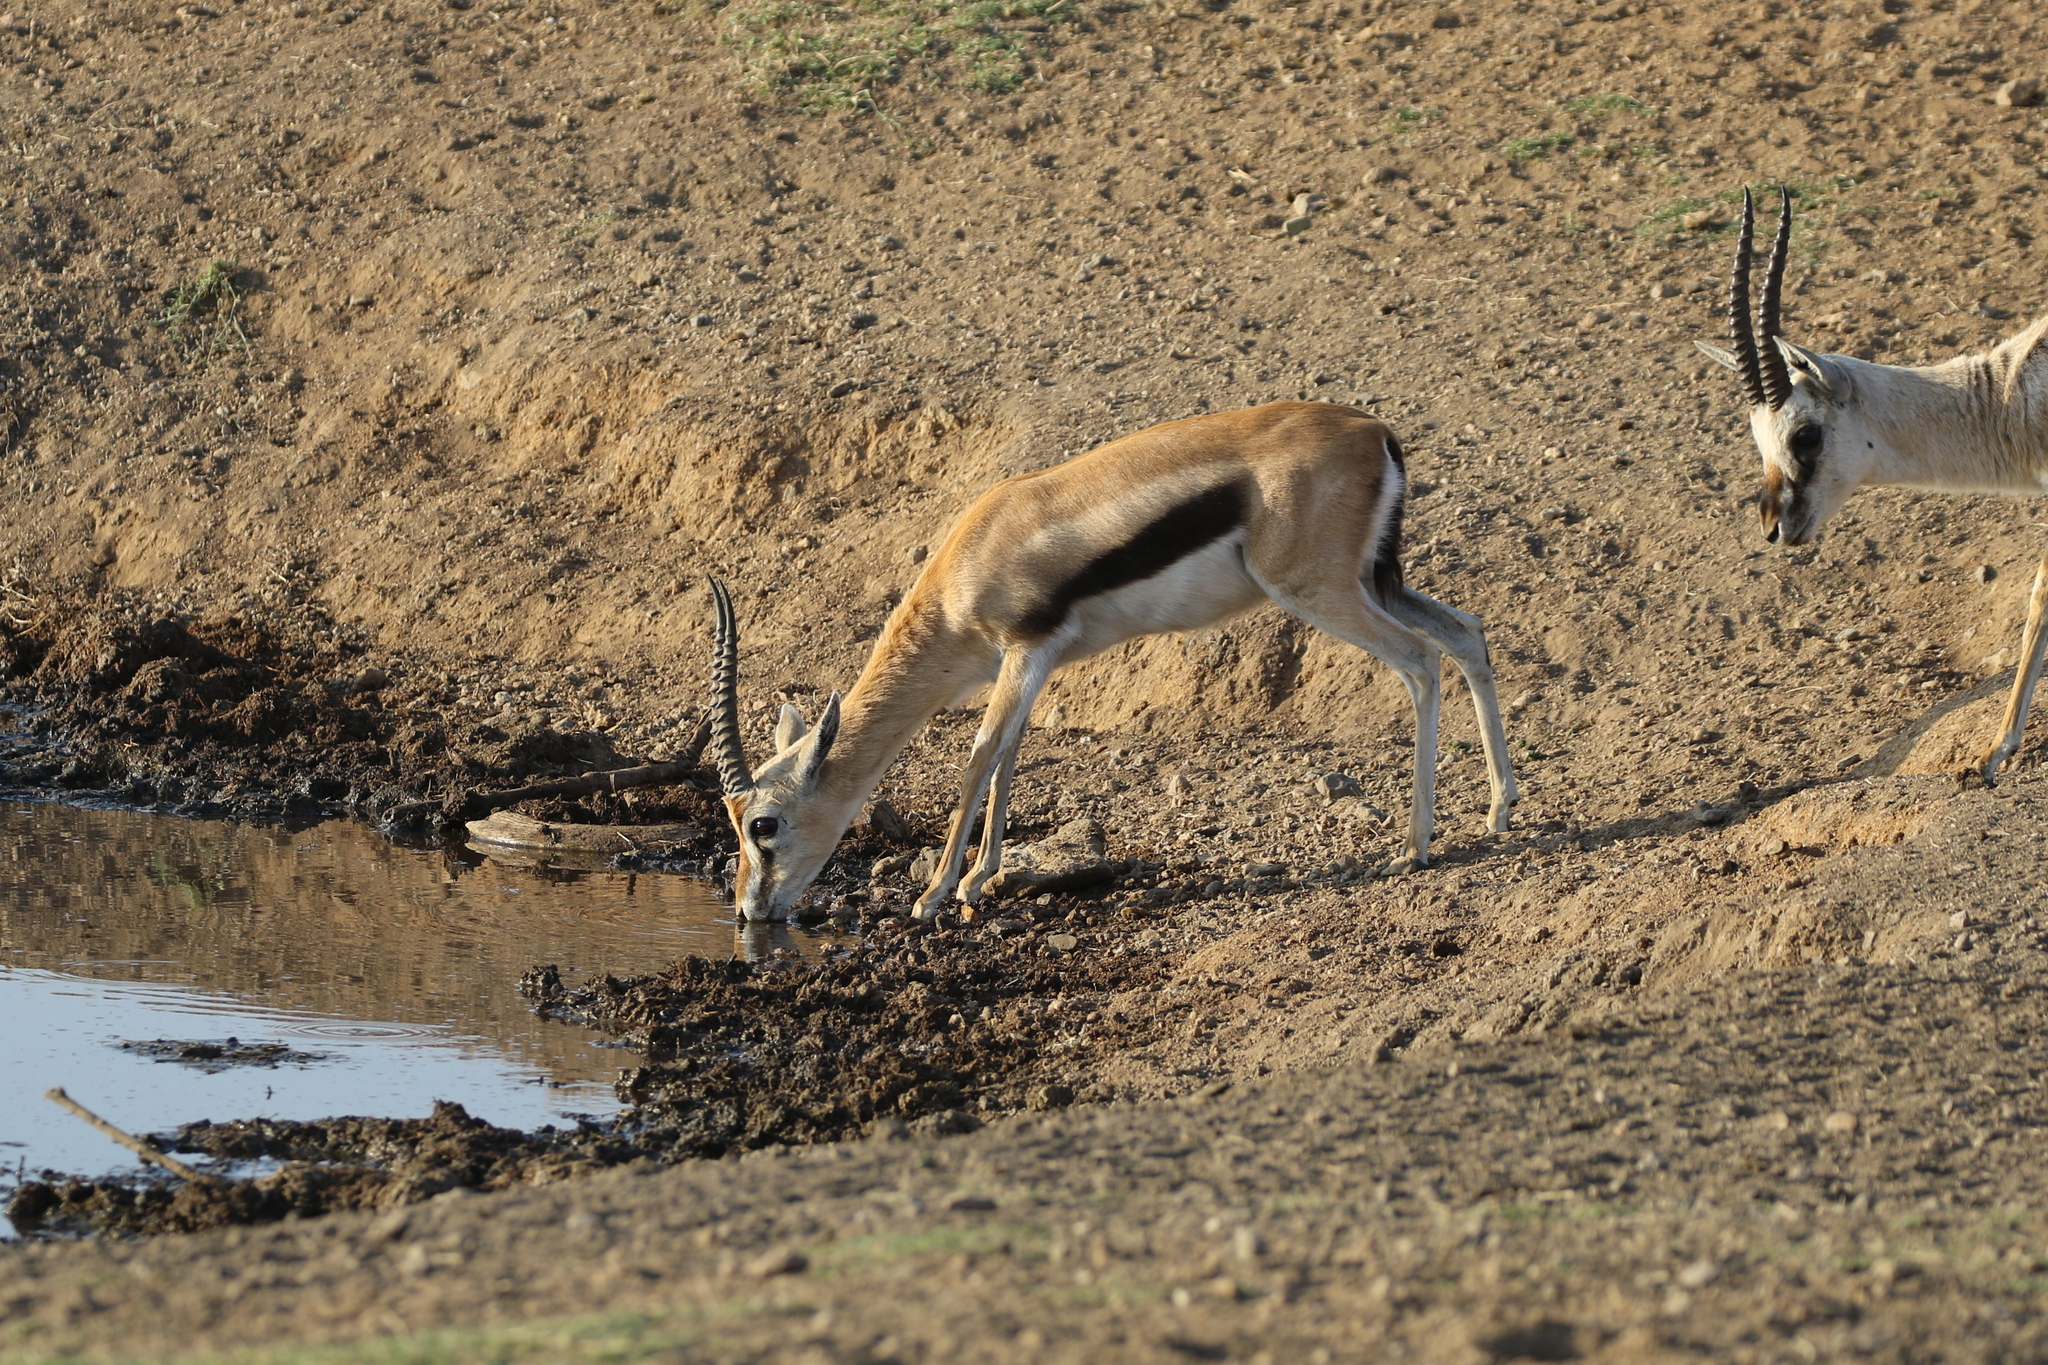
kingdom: Animalia
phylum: Chordata
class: Mammalia
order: Artiodactyla
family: Bovidae
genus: Eudorcas
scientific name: Eudorcas thomsonii
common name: Thomson's gazelle
